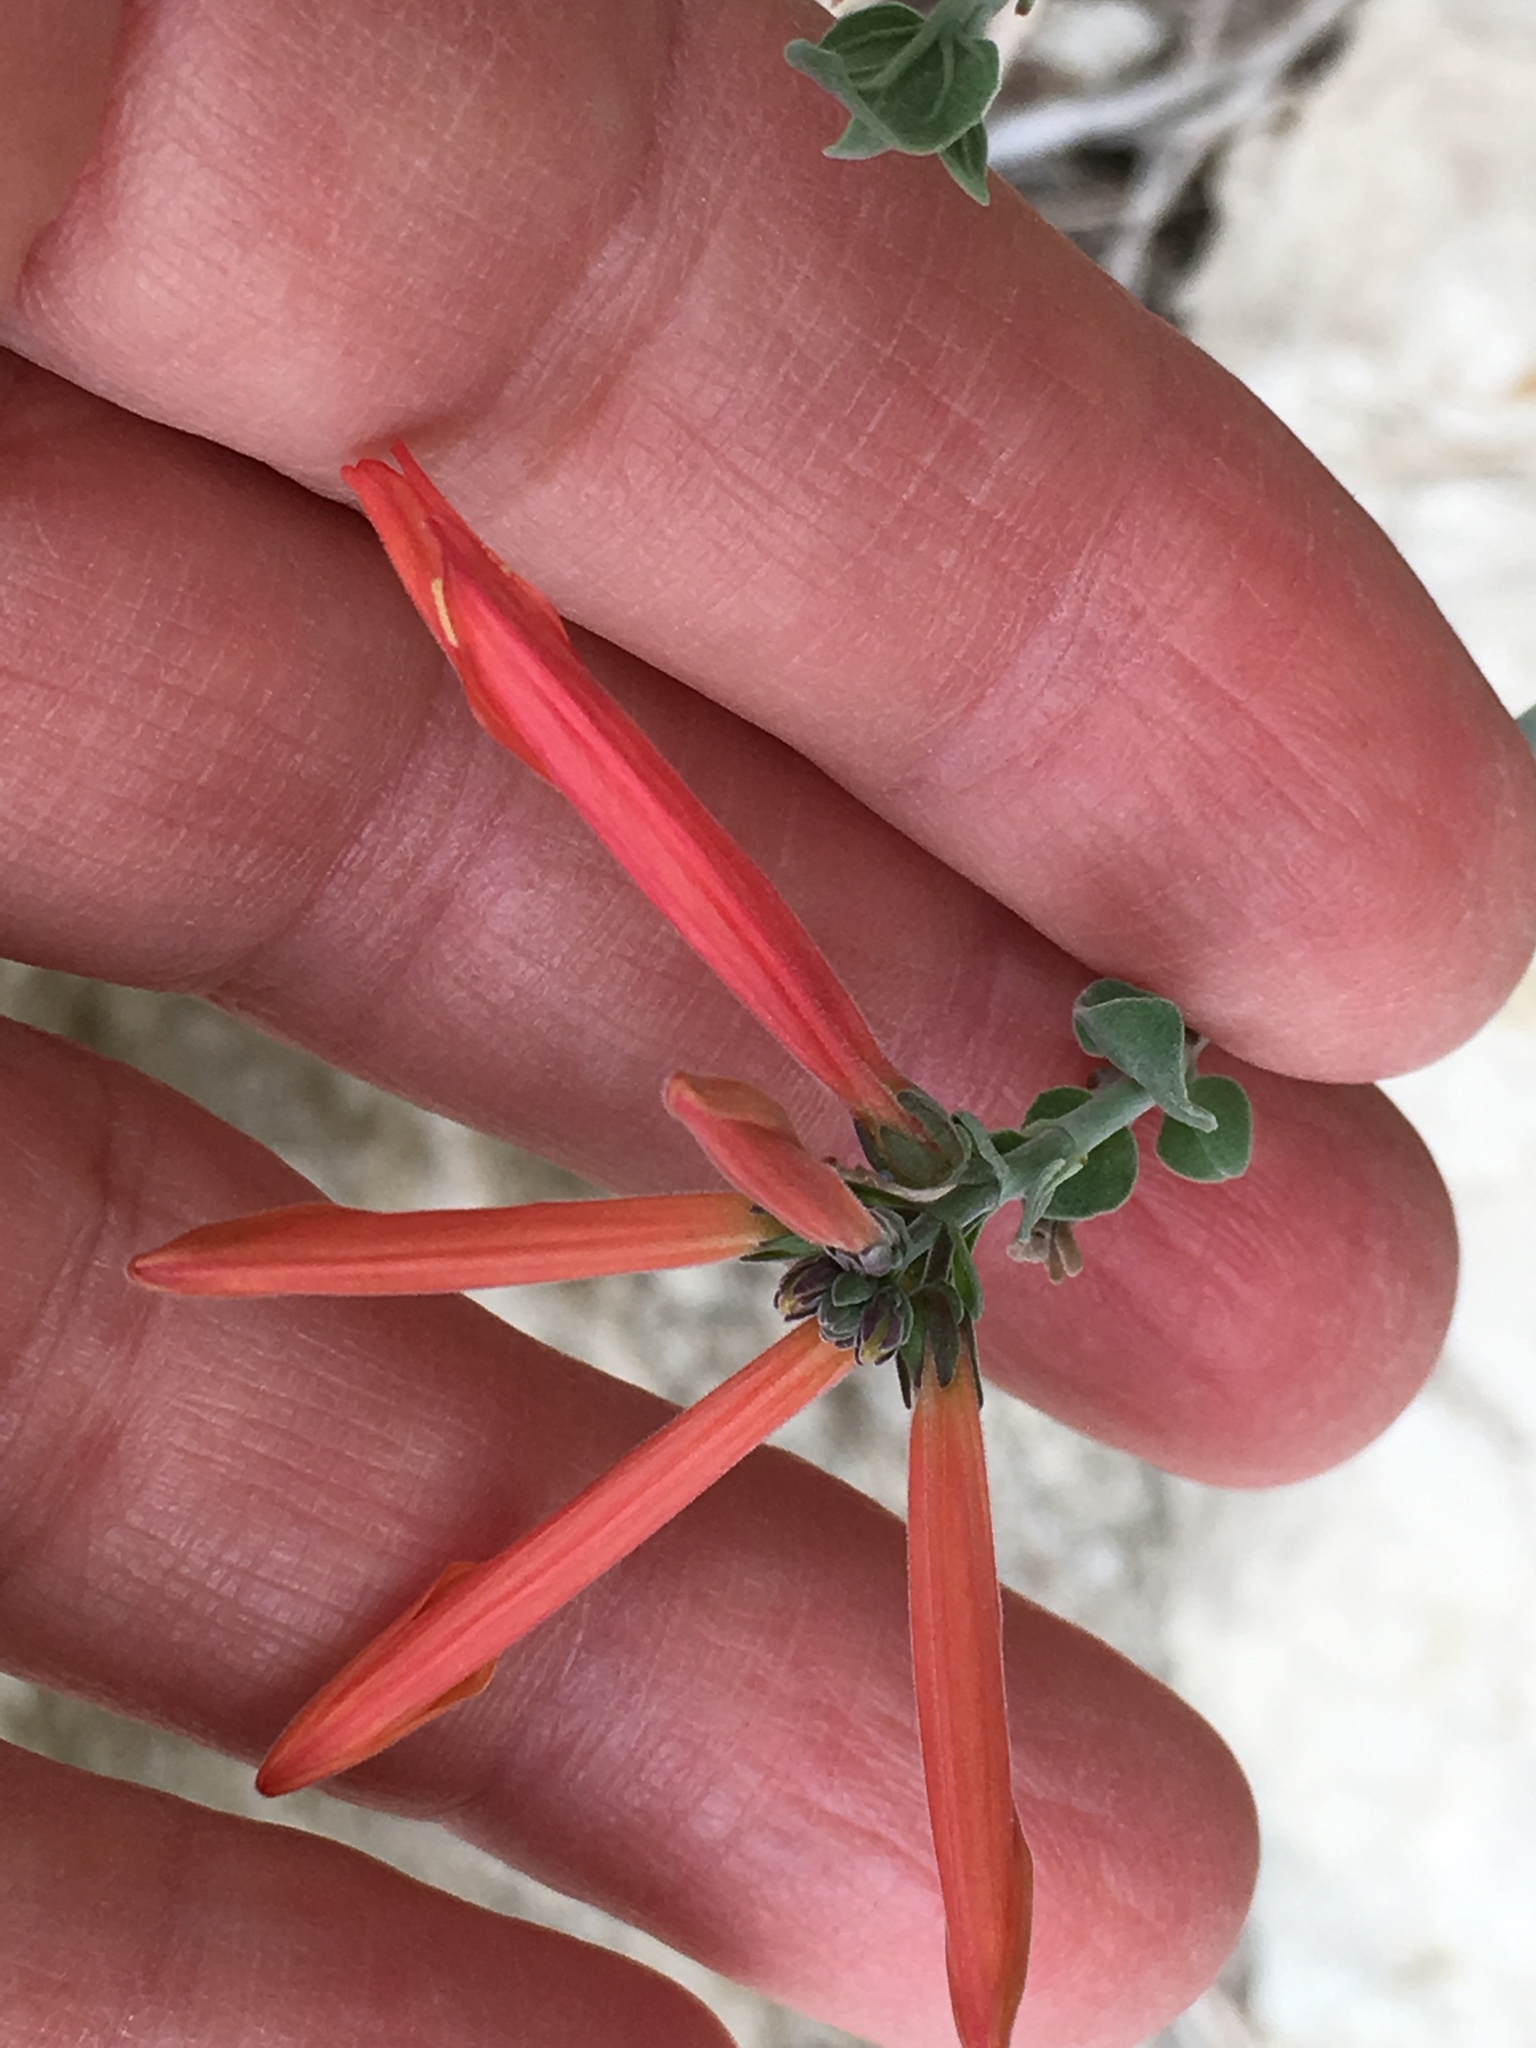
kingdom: Plantae
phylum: Tracheophyta
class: Magnoliopsida
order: Lamiales
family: Acanthaceae
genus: Justicia
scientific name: Justicia californica
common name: Chuparosa-honeysuckle
